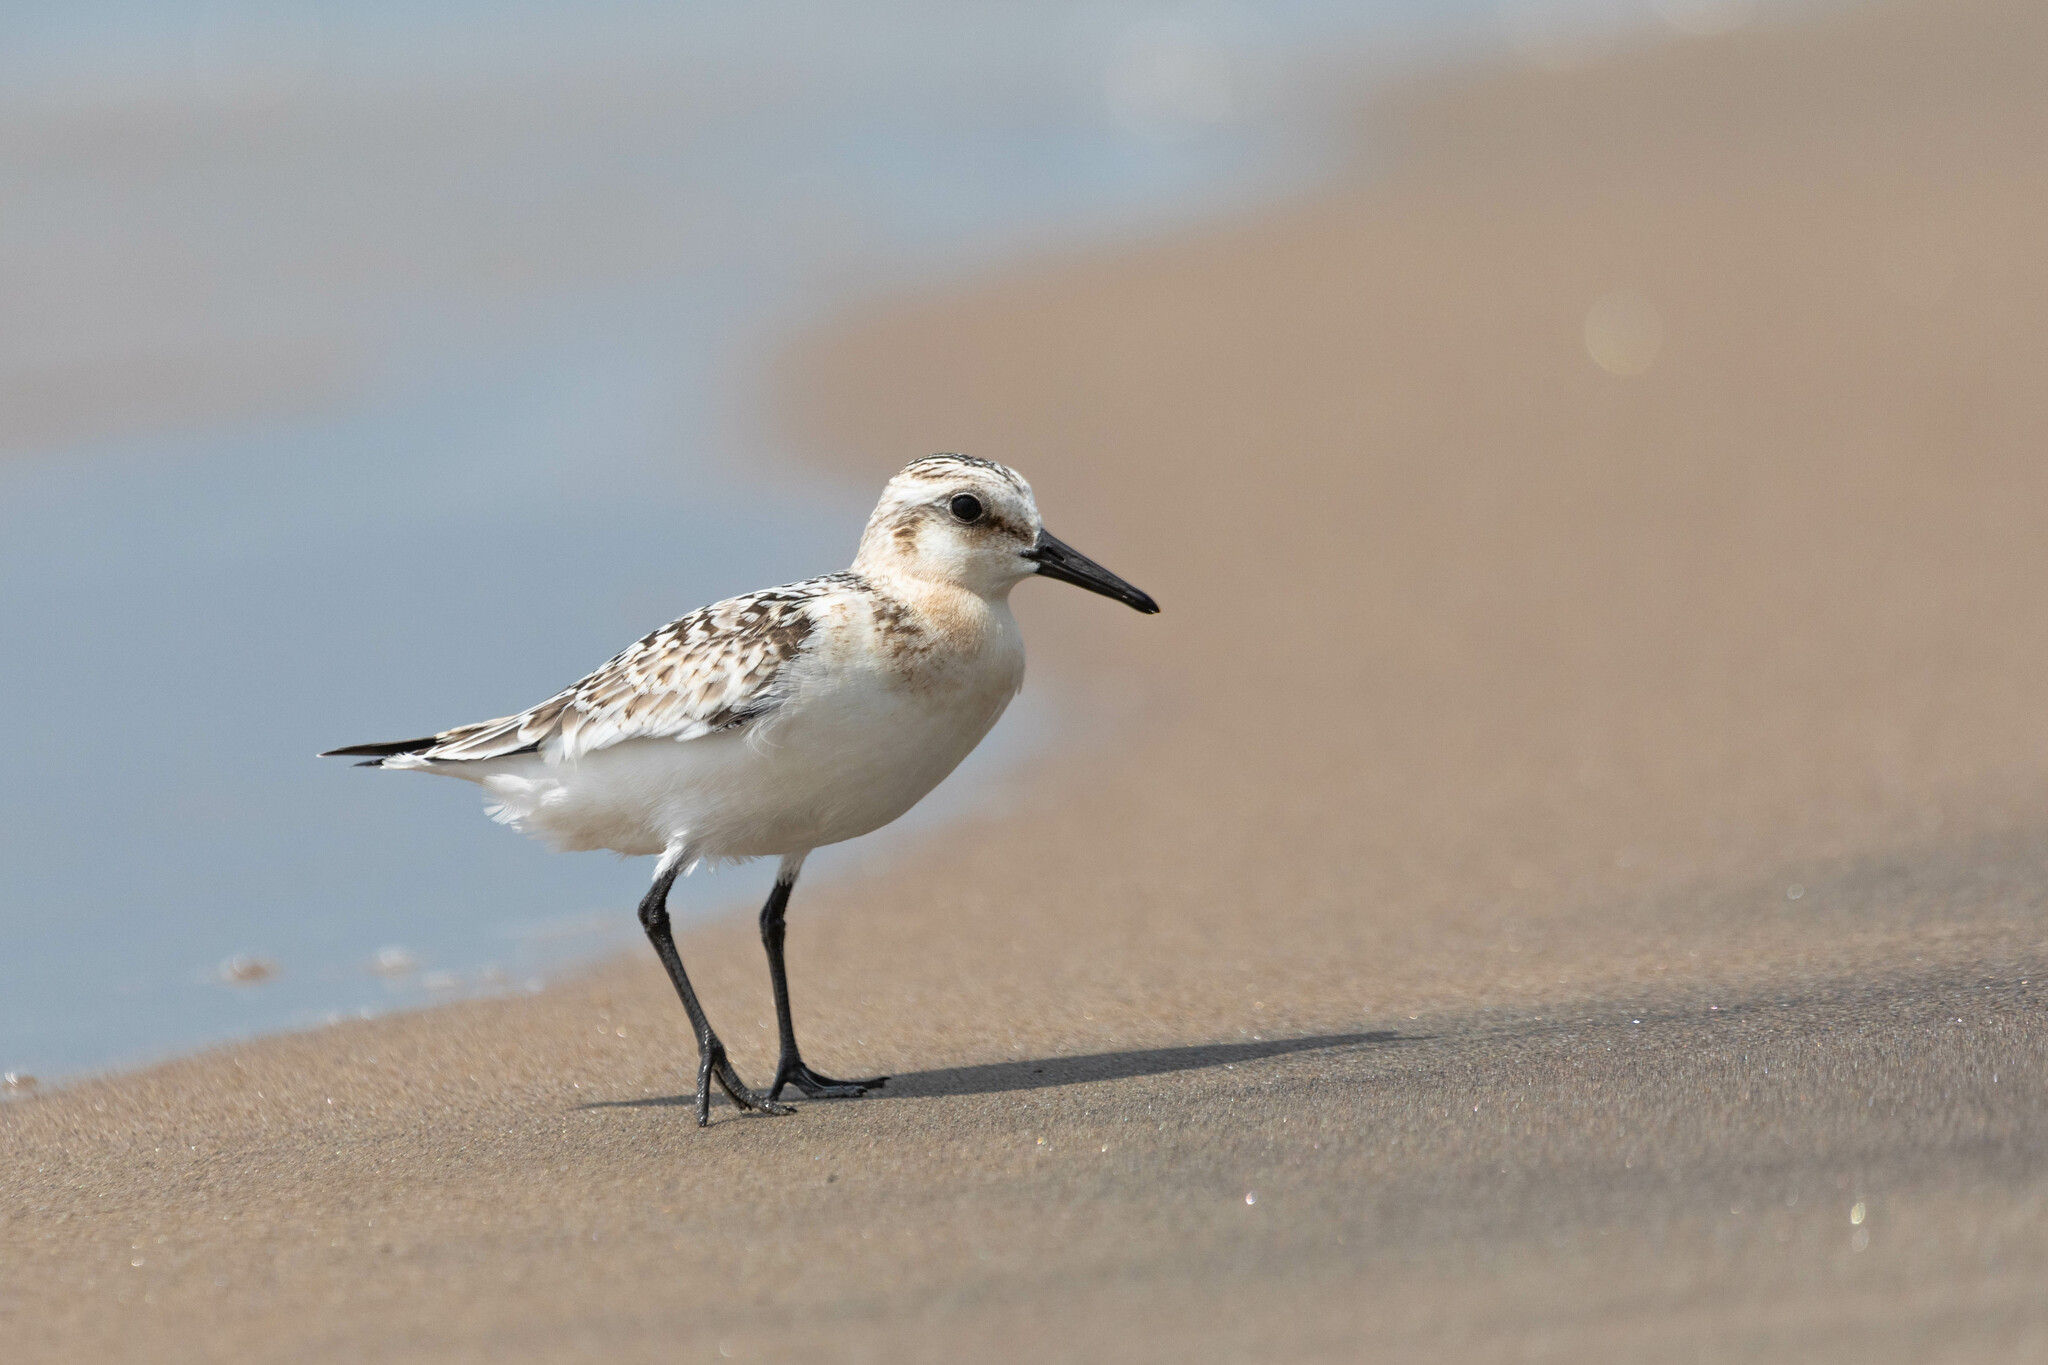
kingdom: Animalia
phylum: Chordata
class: Aves
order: Charadriiformes
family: Scolopacidae
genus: Calidris
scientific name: Calidris alba
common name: Sanderling
